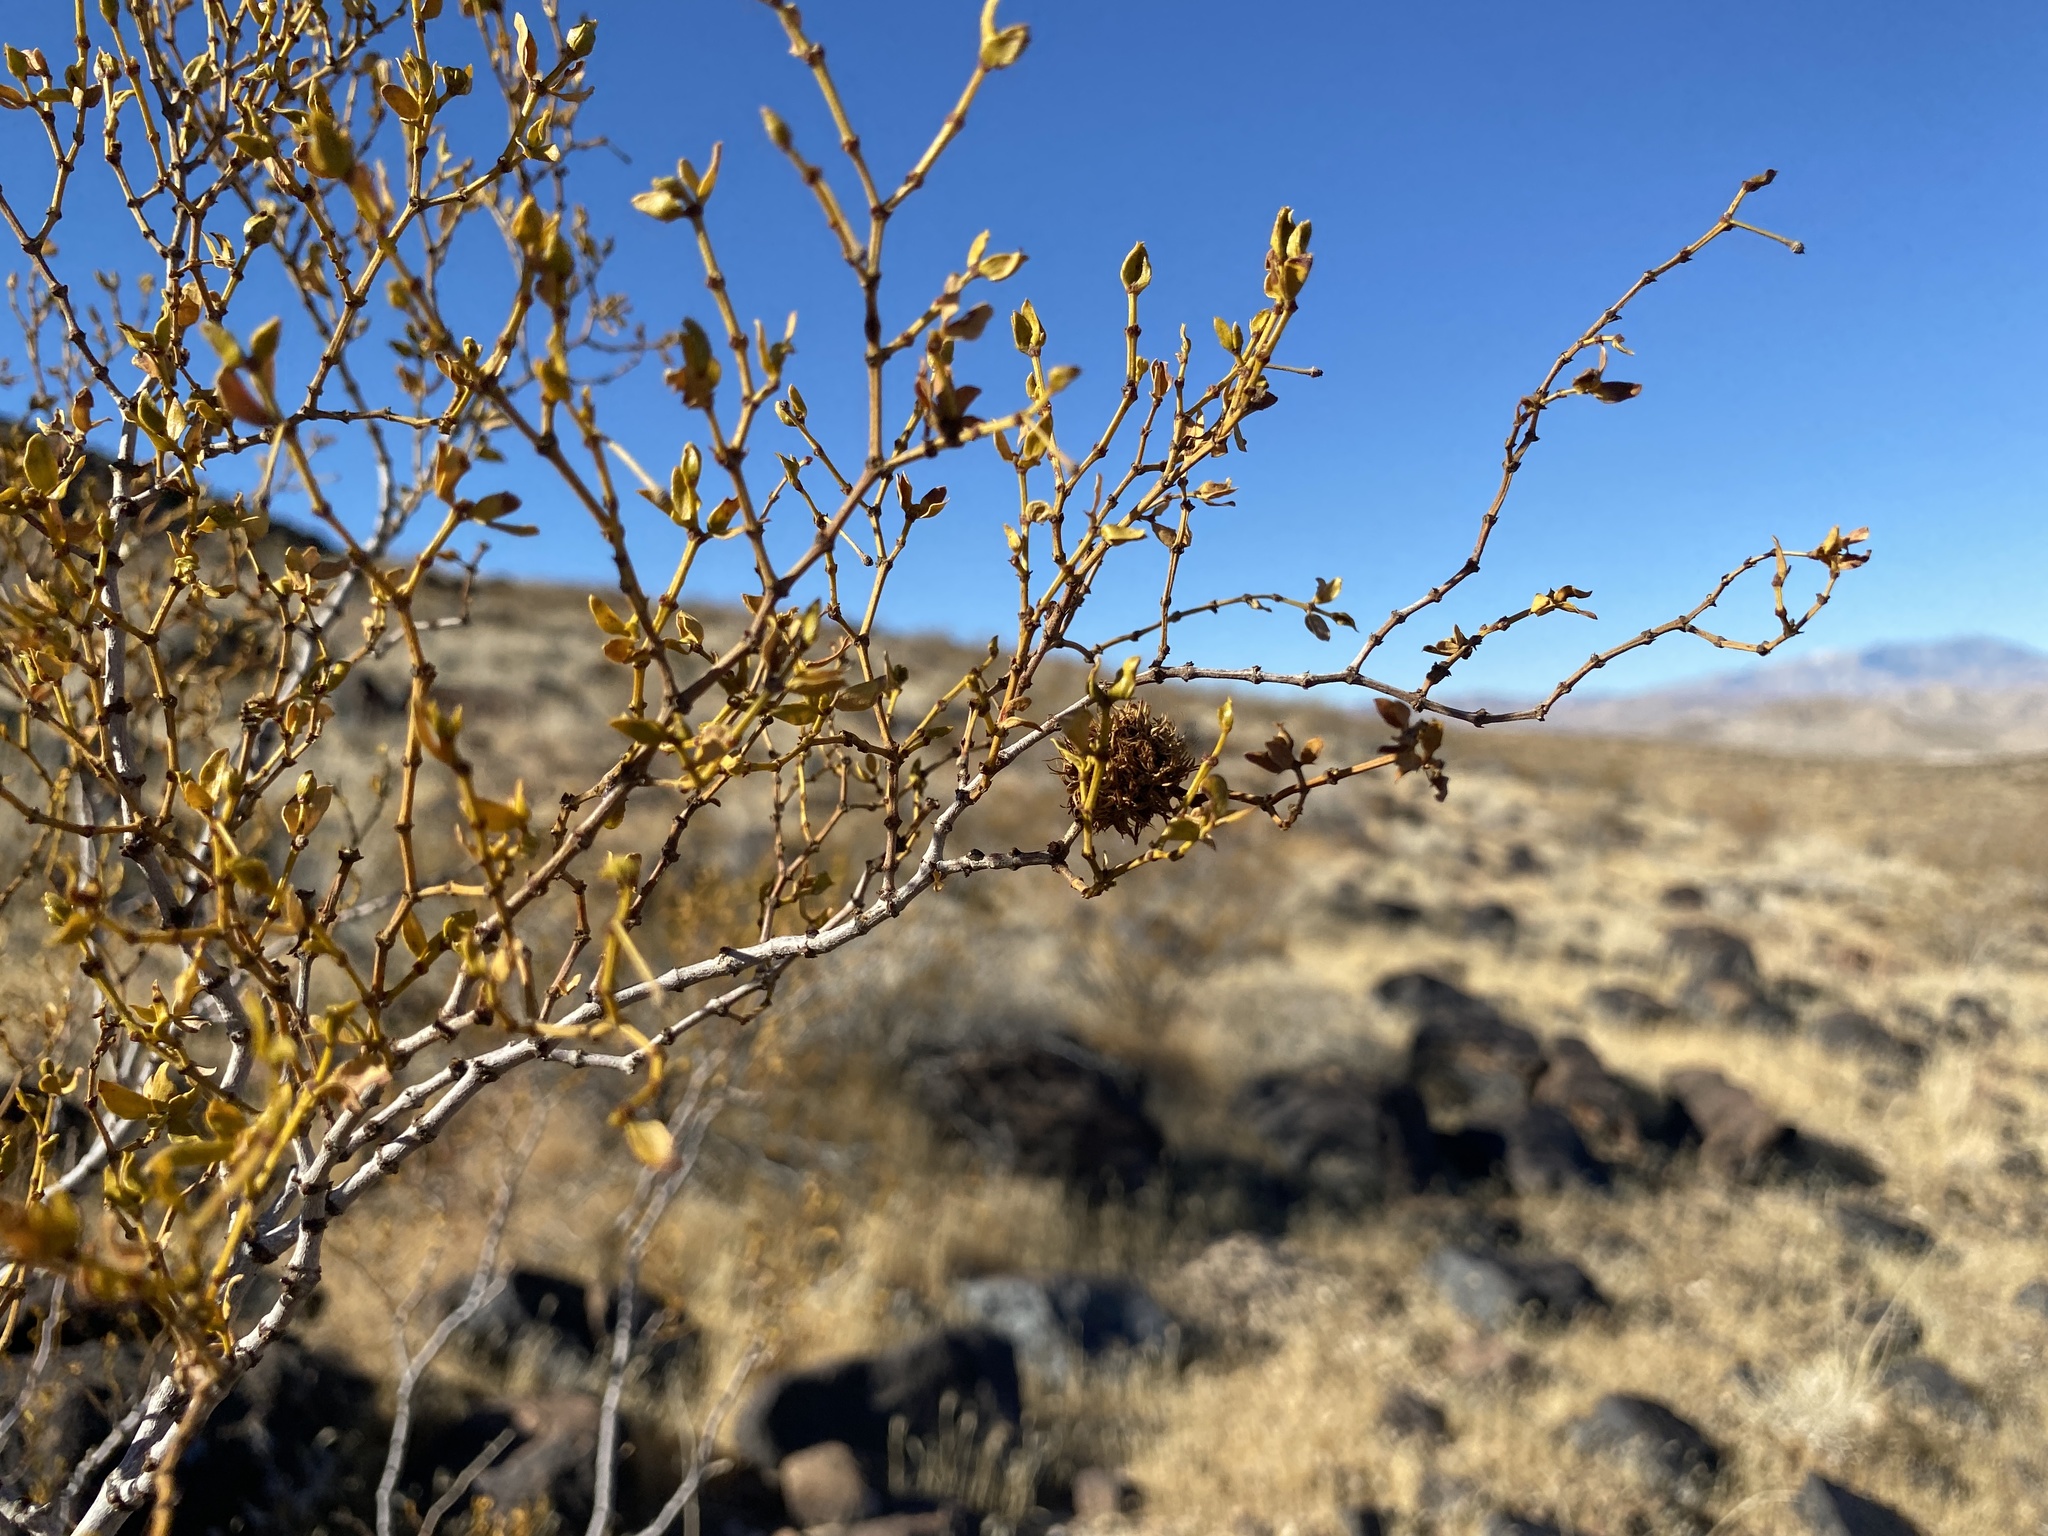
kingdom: Animalia
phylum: Arthropoda
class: Insecta
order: Diptera
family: Cecidomyiidae
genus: Asphondylia
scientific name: Asphondylia auripila
